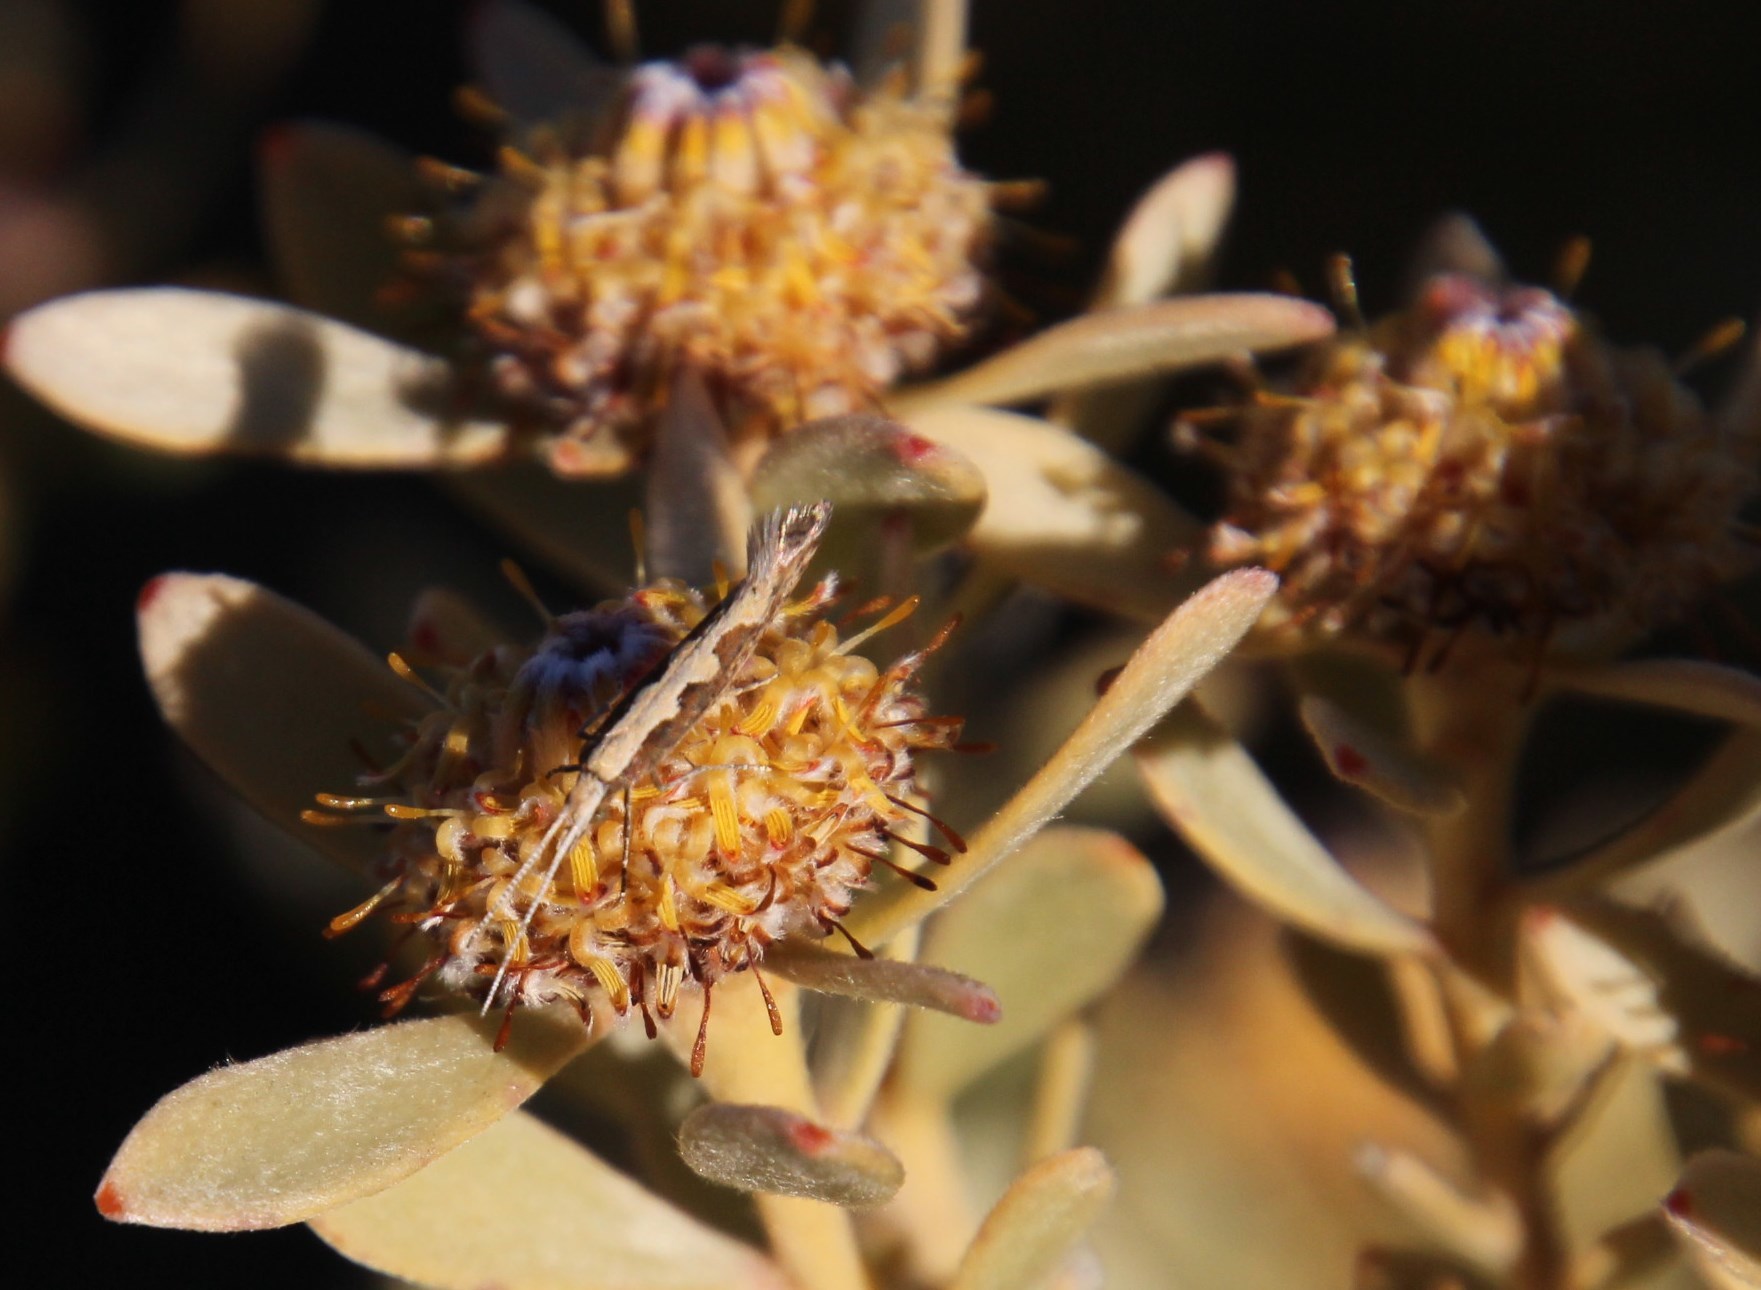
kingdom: Animalia
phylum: Arthropoda
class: Insecta
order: Lepidoptera
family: Plutellidae
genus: Plutella
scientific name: Plutella xylostella
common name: Diamond-back moth
